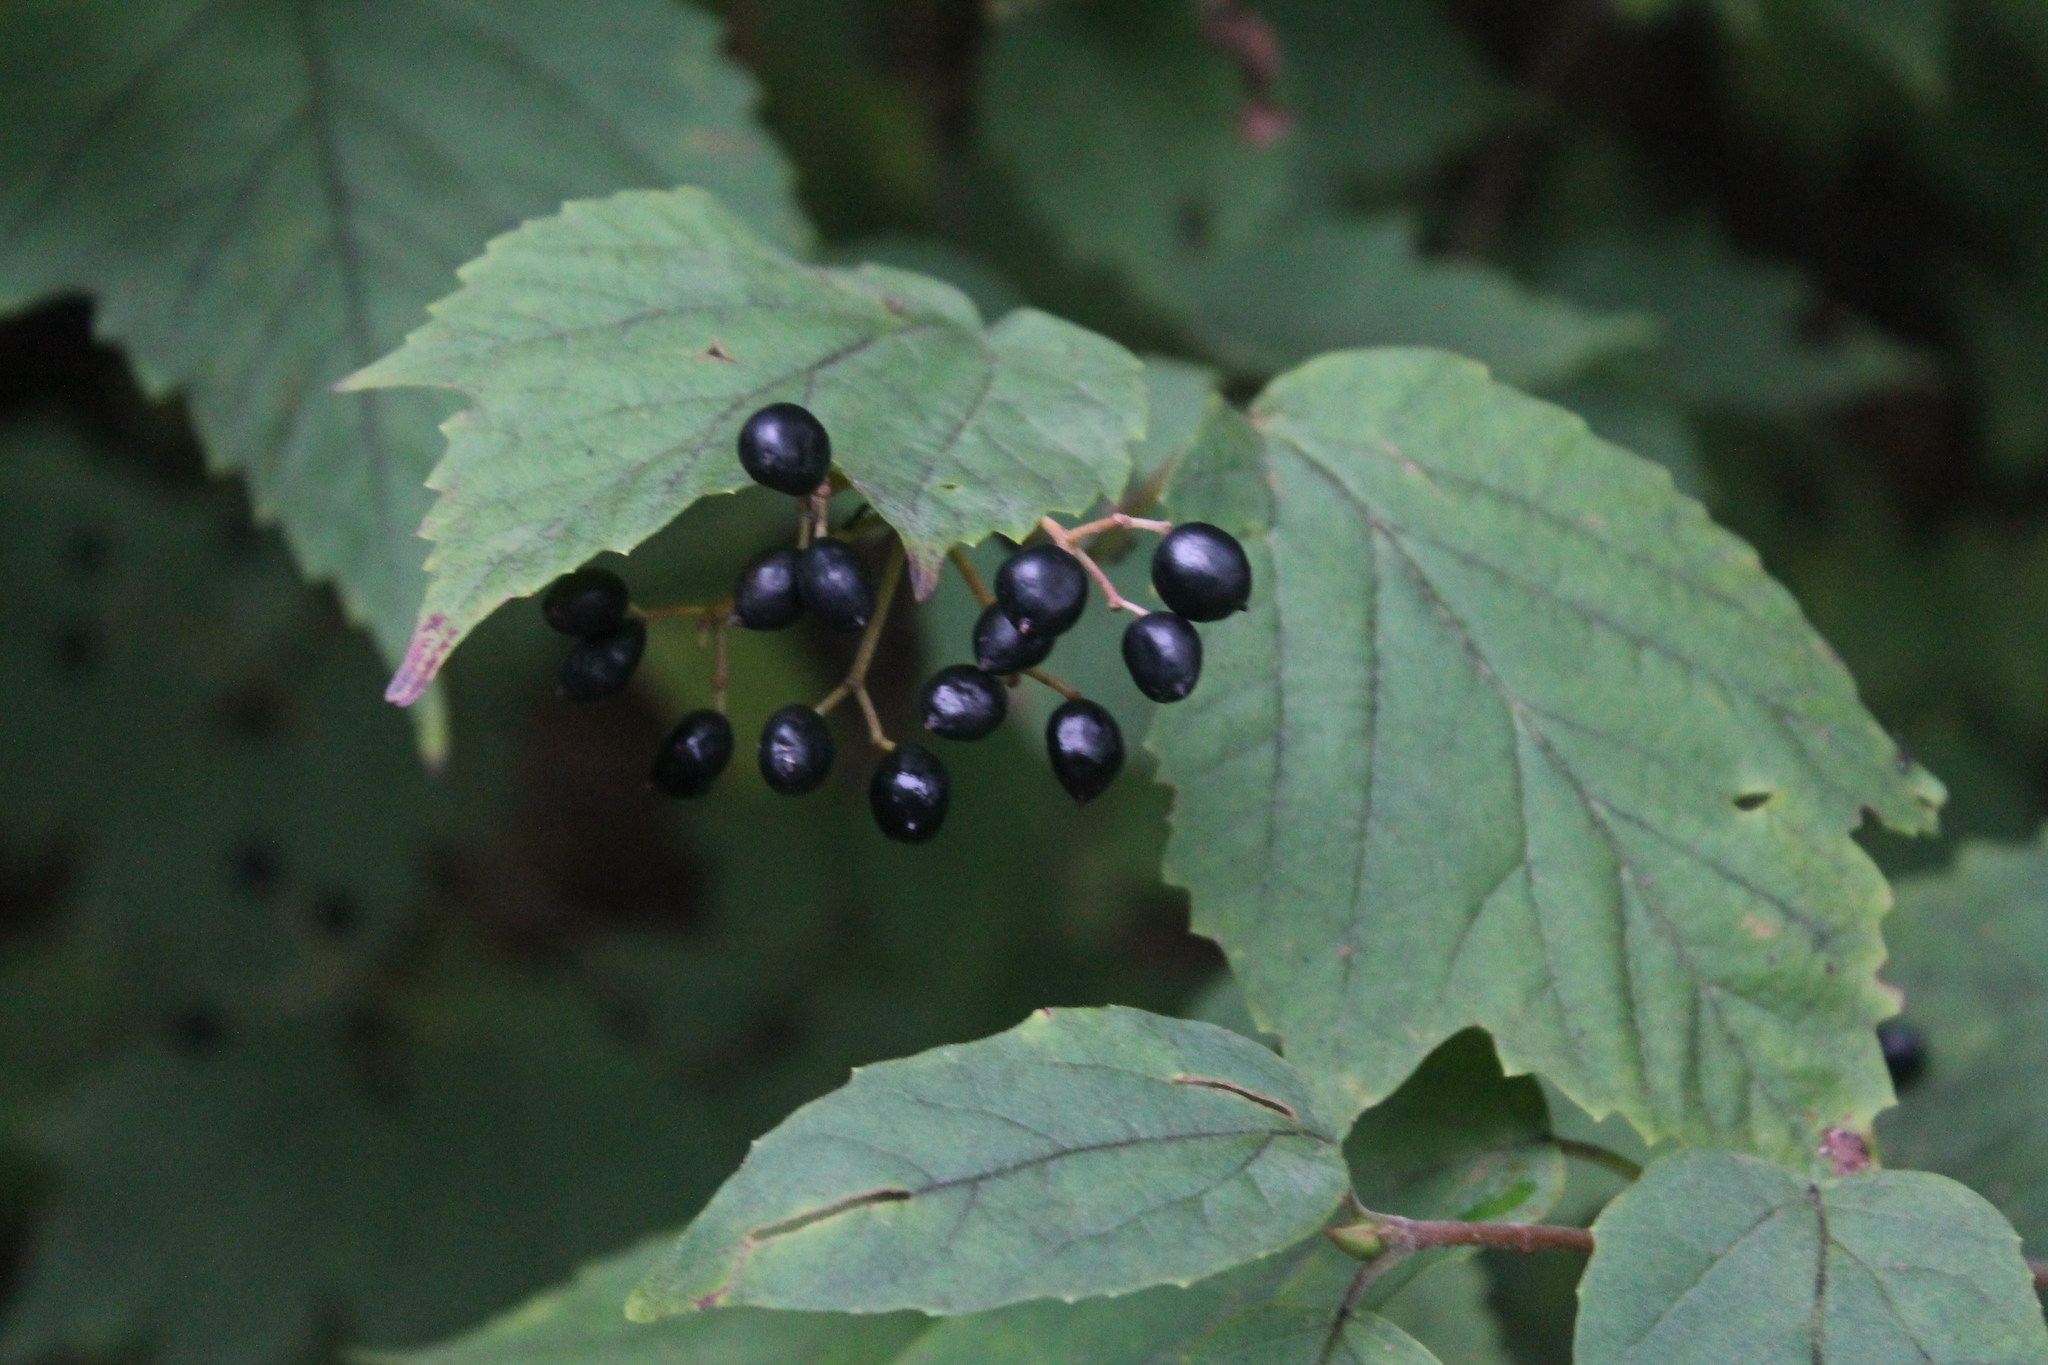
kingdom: Plantae
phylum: Tracheophyta
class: Magnoliopsida
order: Dipsacales
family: Viburnaceae
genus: Viburnum
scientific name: Viburnum acerifolium
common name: Dockmackie
